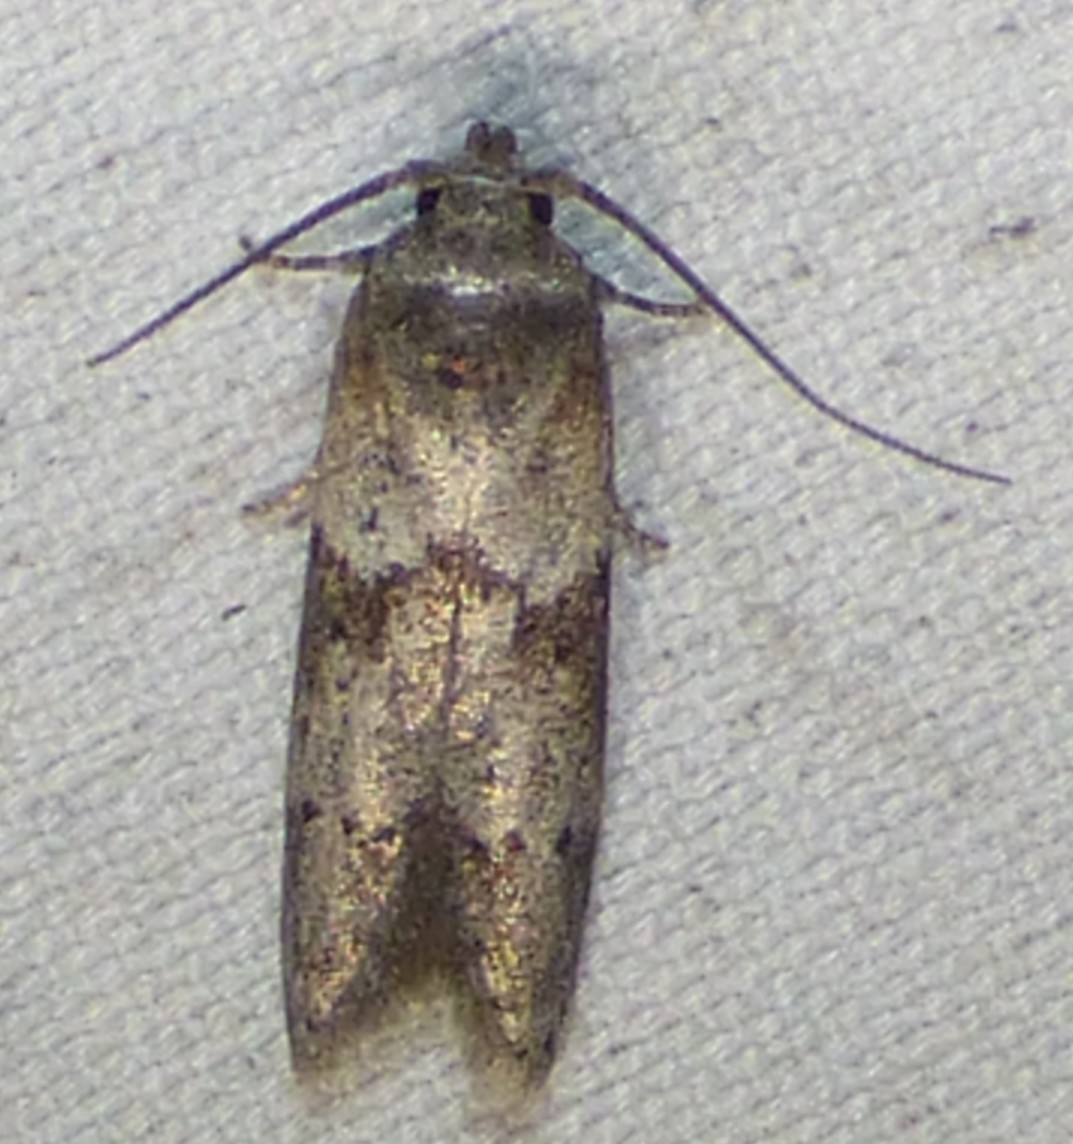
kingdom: Animalia
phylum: Arthropoda
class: Insecta
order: Lepidoptera
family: Blastobasidae
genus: Blastobasis
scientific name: Blastobasis glandulella
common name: Acorn moth
